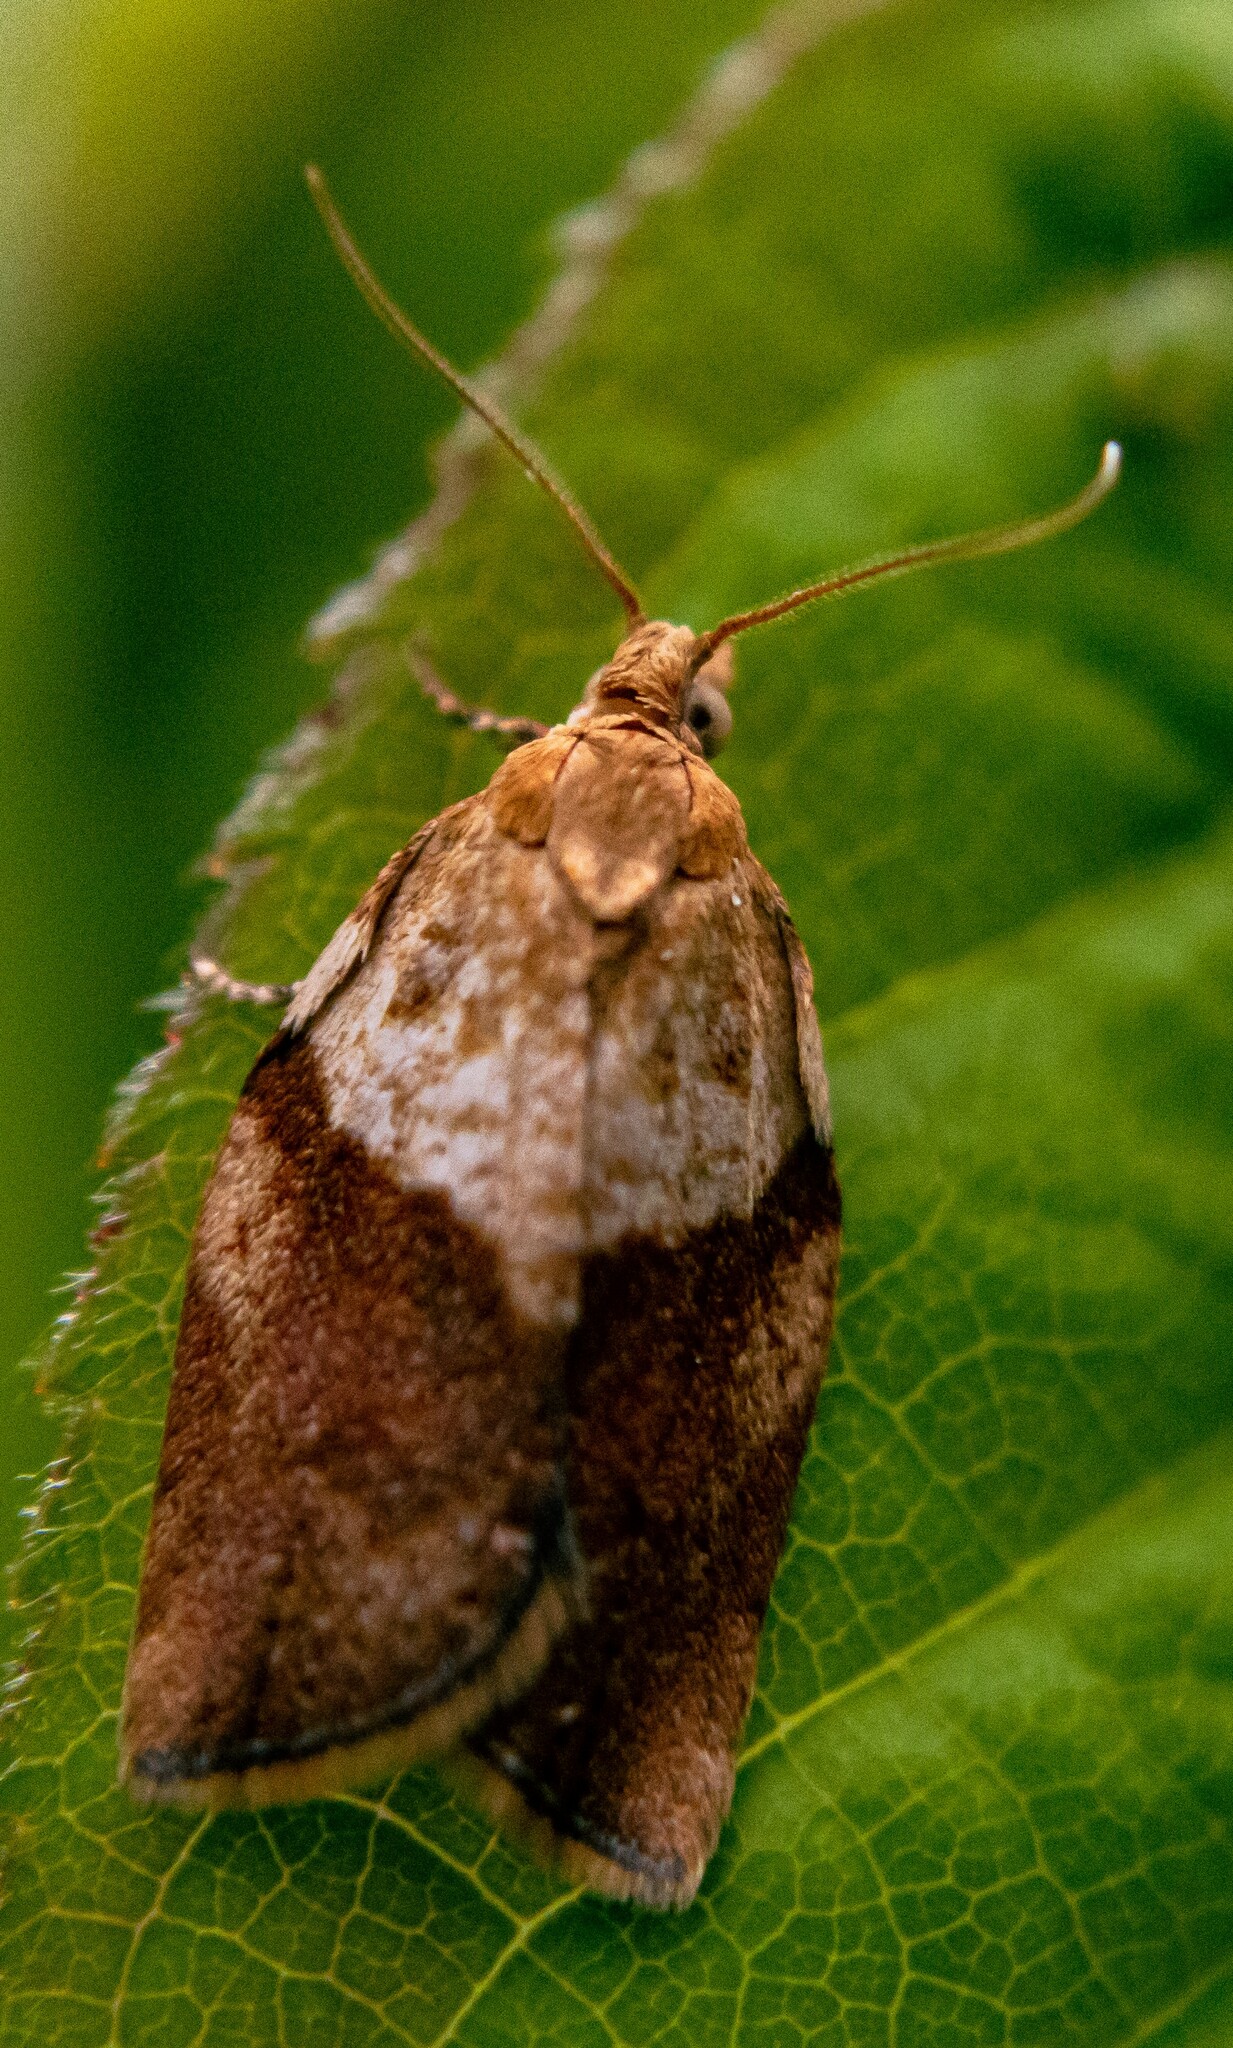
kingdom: Animalia
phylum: Arthropoda
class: Insecta
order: Lepidoptera
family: Tortricidae
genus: Epiphyas
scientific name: Epiphyas postvittana
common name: Light brown apple moth
